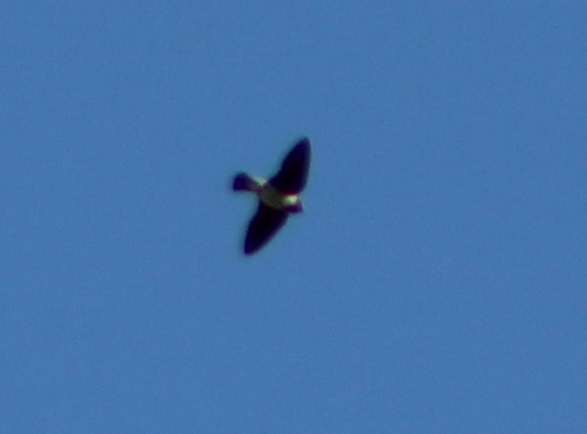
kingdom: Animalia
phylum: Chordata
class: Aves
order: Passeriformes
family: Hirundinidae
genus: Petrochelidon
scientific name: Petrochelidon pyrrhonota
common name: American cliff swallow
